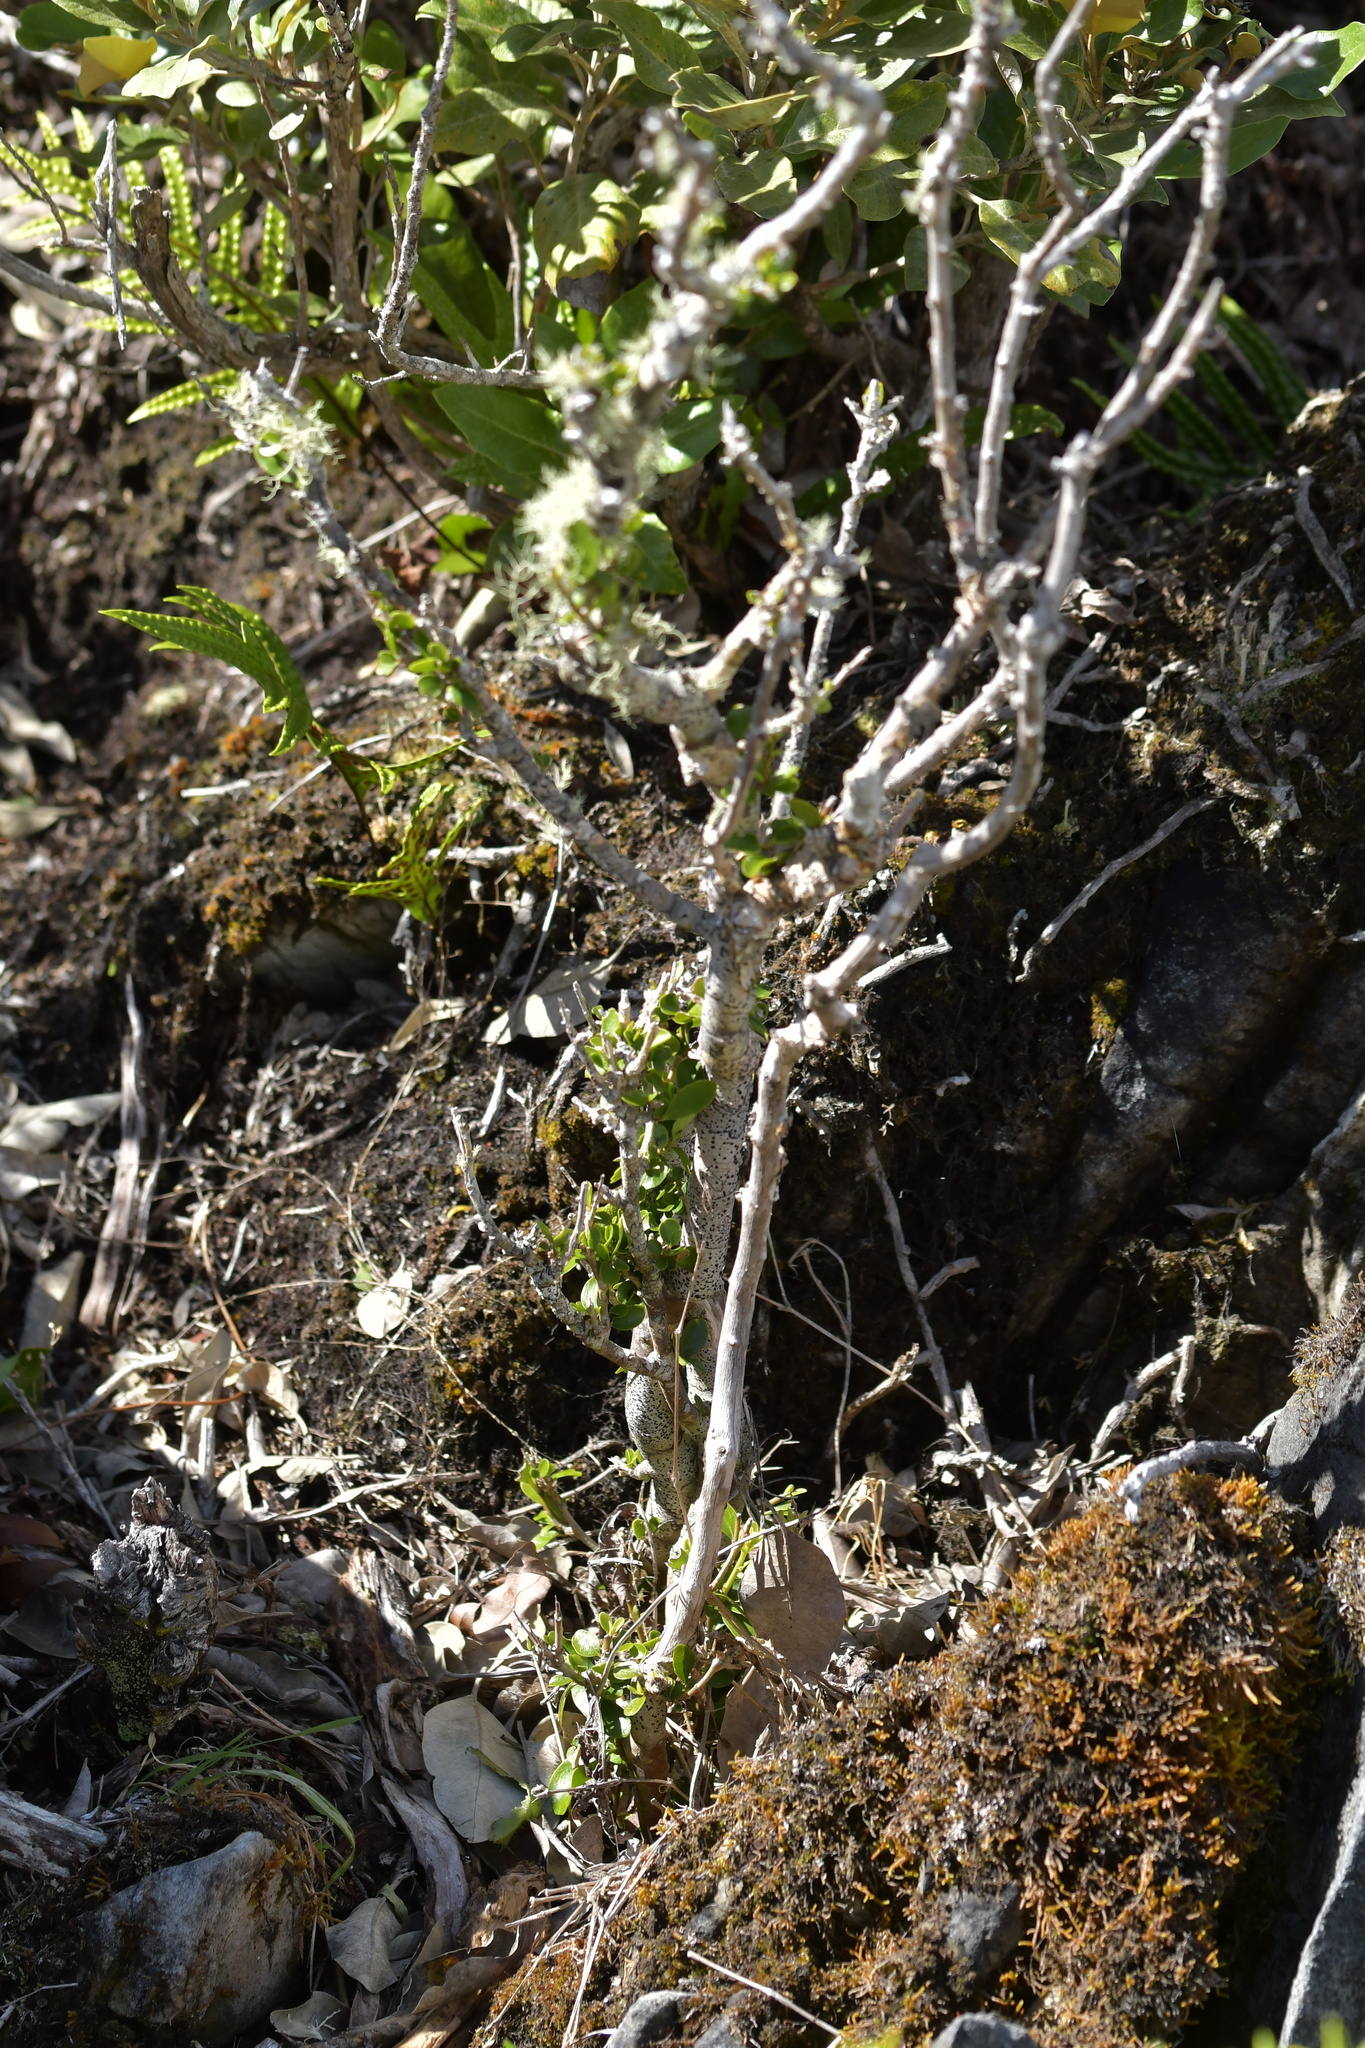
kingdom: Plantae
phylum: Tracheophyta
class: Magnoliopsida
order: Malpighiales
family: Violaceae
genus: Melicytus
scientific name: Melicytus obovatus
